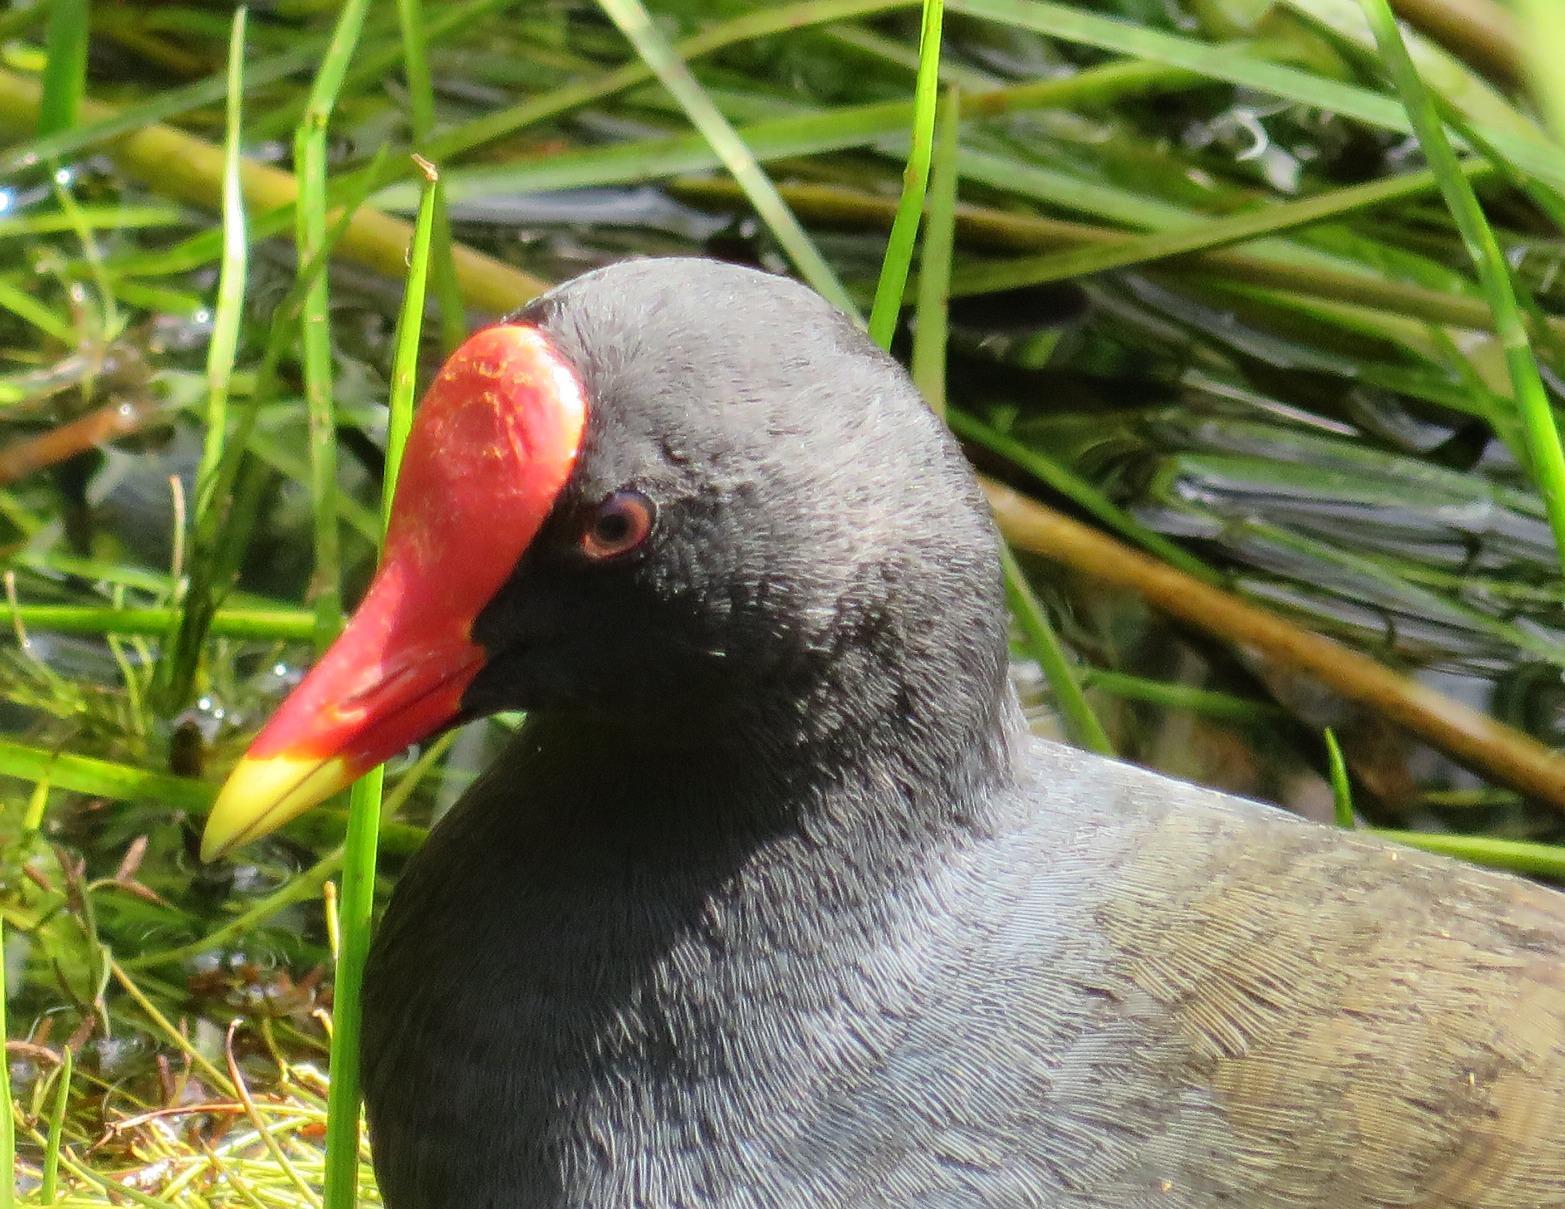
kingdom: Animalia
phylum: Chordata
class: Aves
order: Gruiformes
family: Rallidae
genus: Gallinula
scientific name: Gallinula chloropus
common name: Common moorhen
